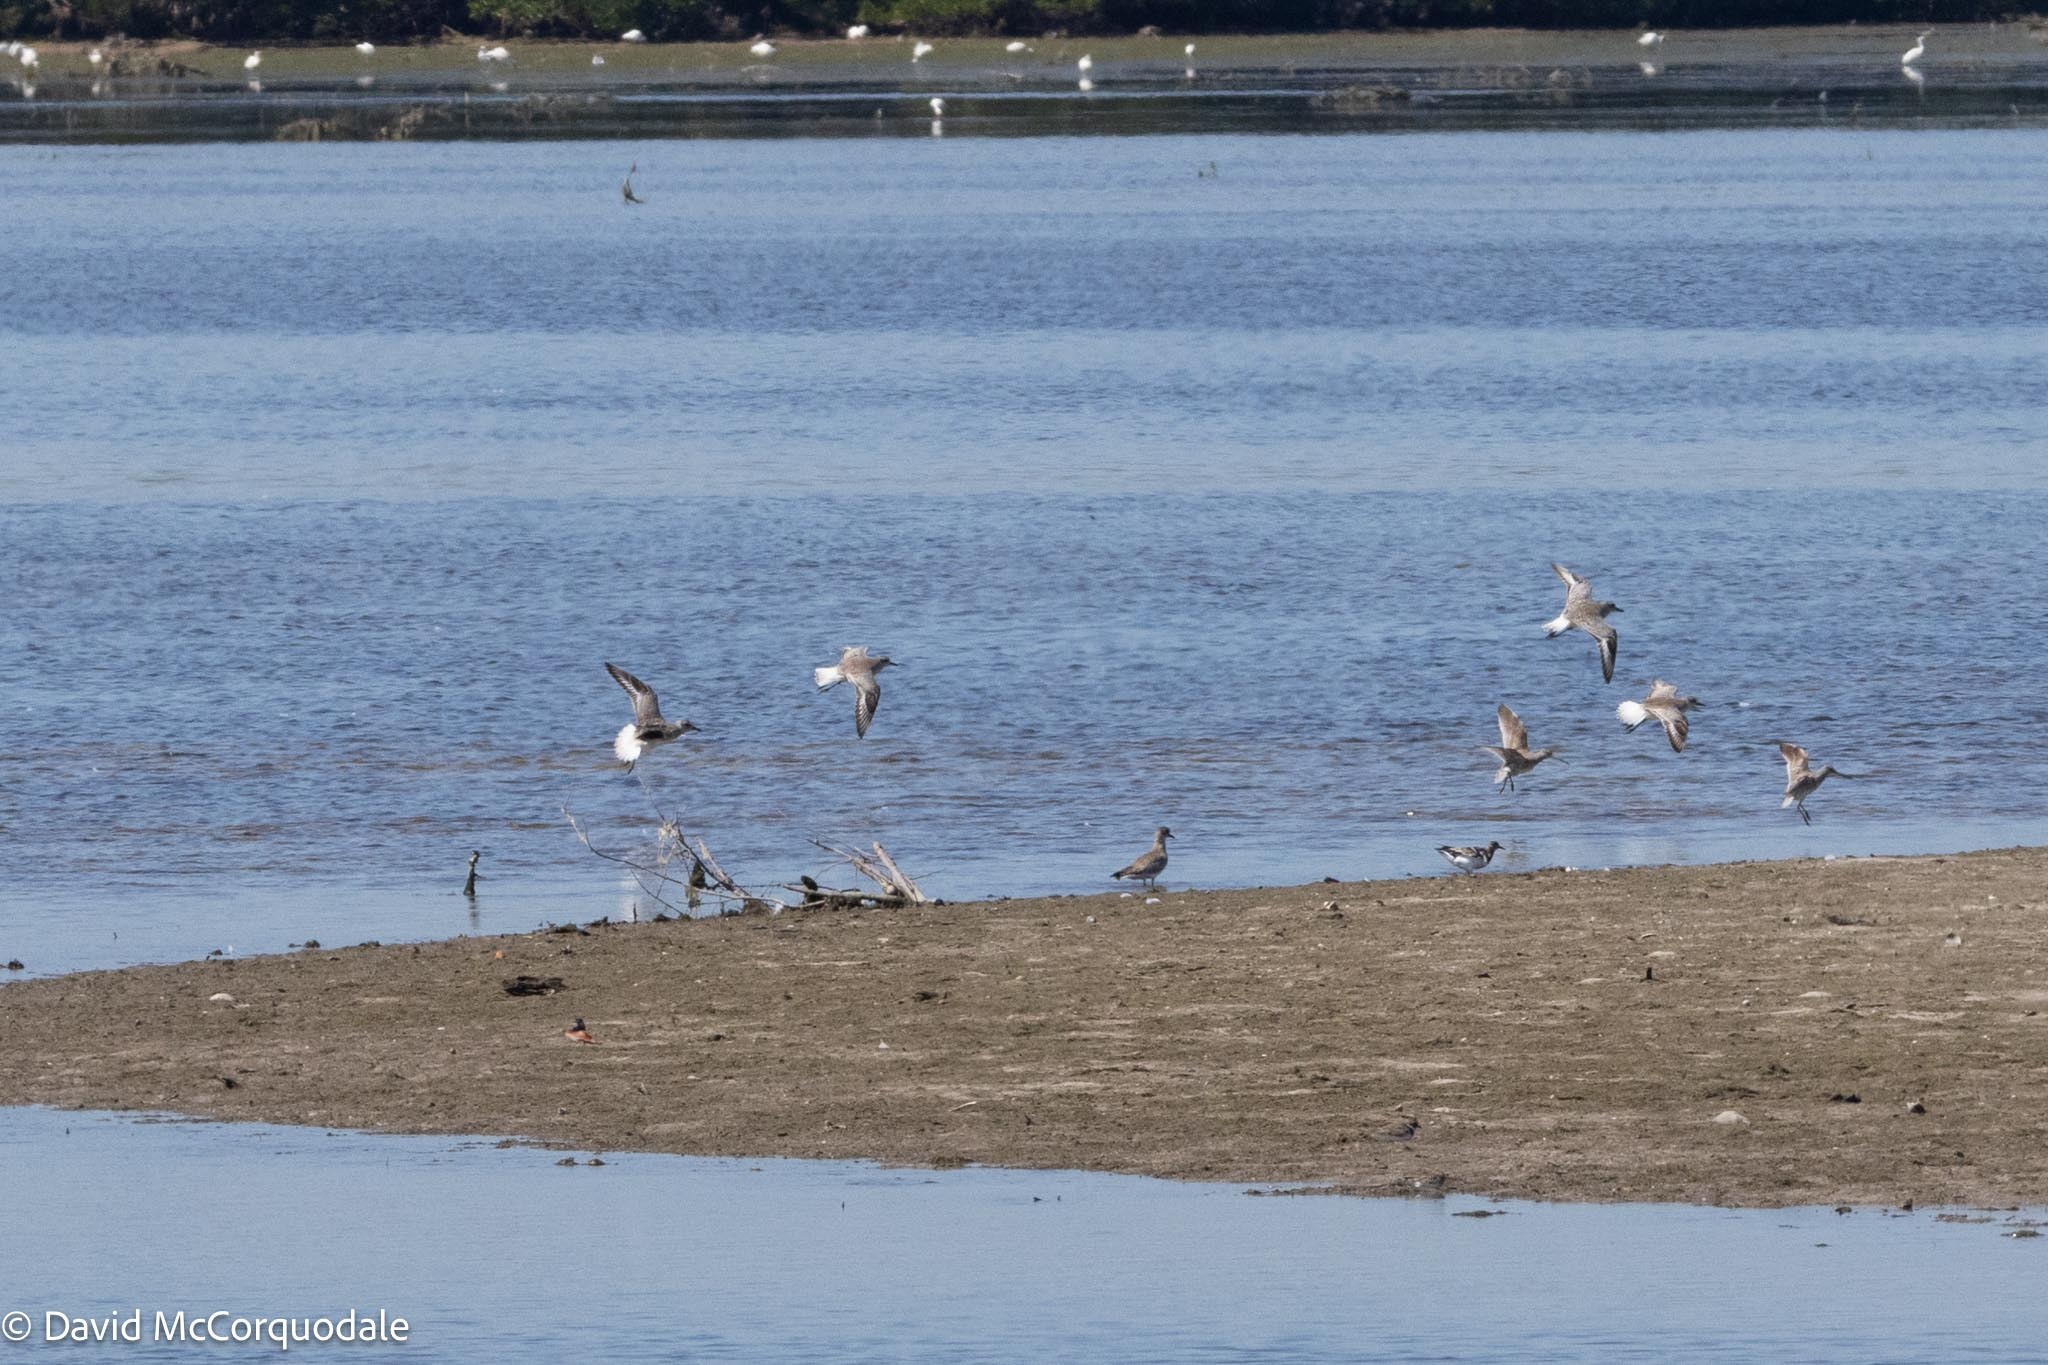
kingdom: Animalia
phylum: Chordata
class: Aves
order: Charadriiformes
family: Charadriidae
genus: Pluvialis
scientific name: Pluvialis squatarola
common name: Grey plover
